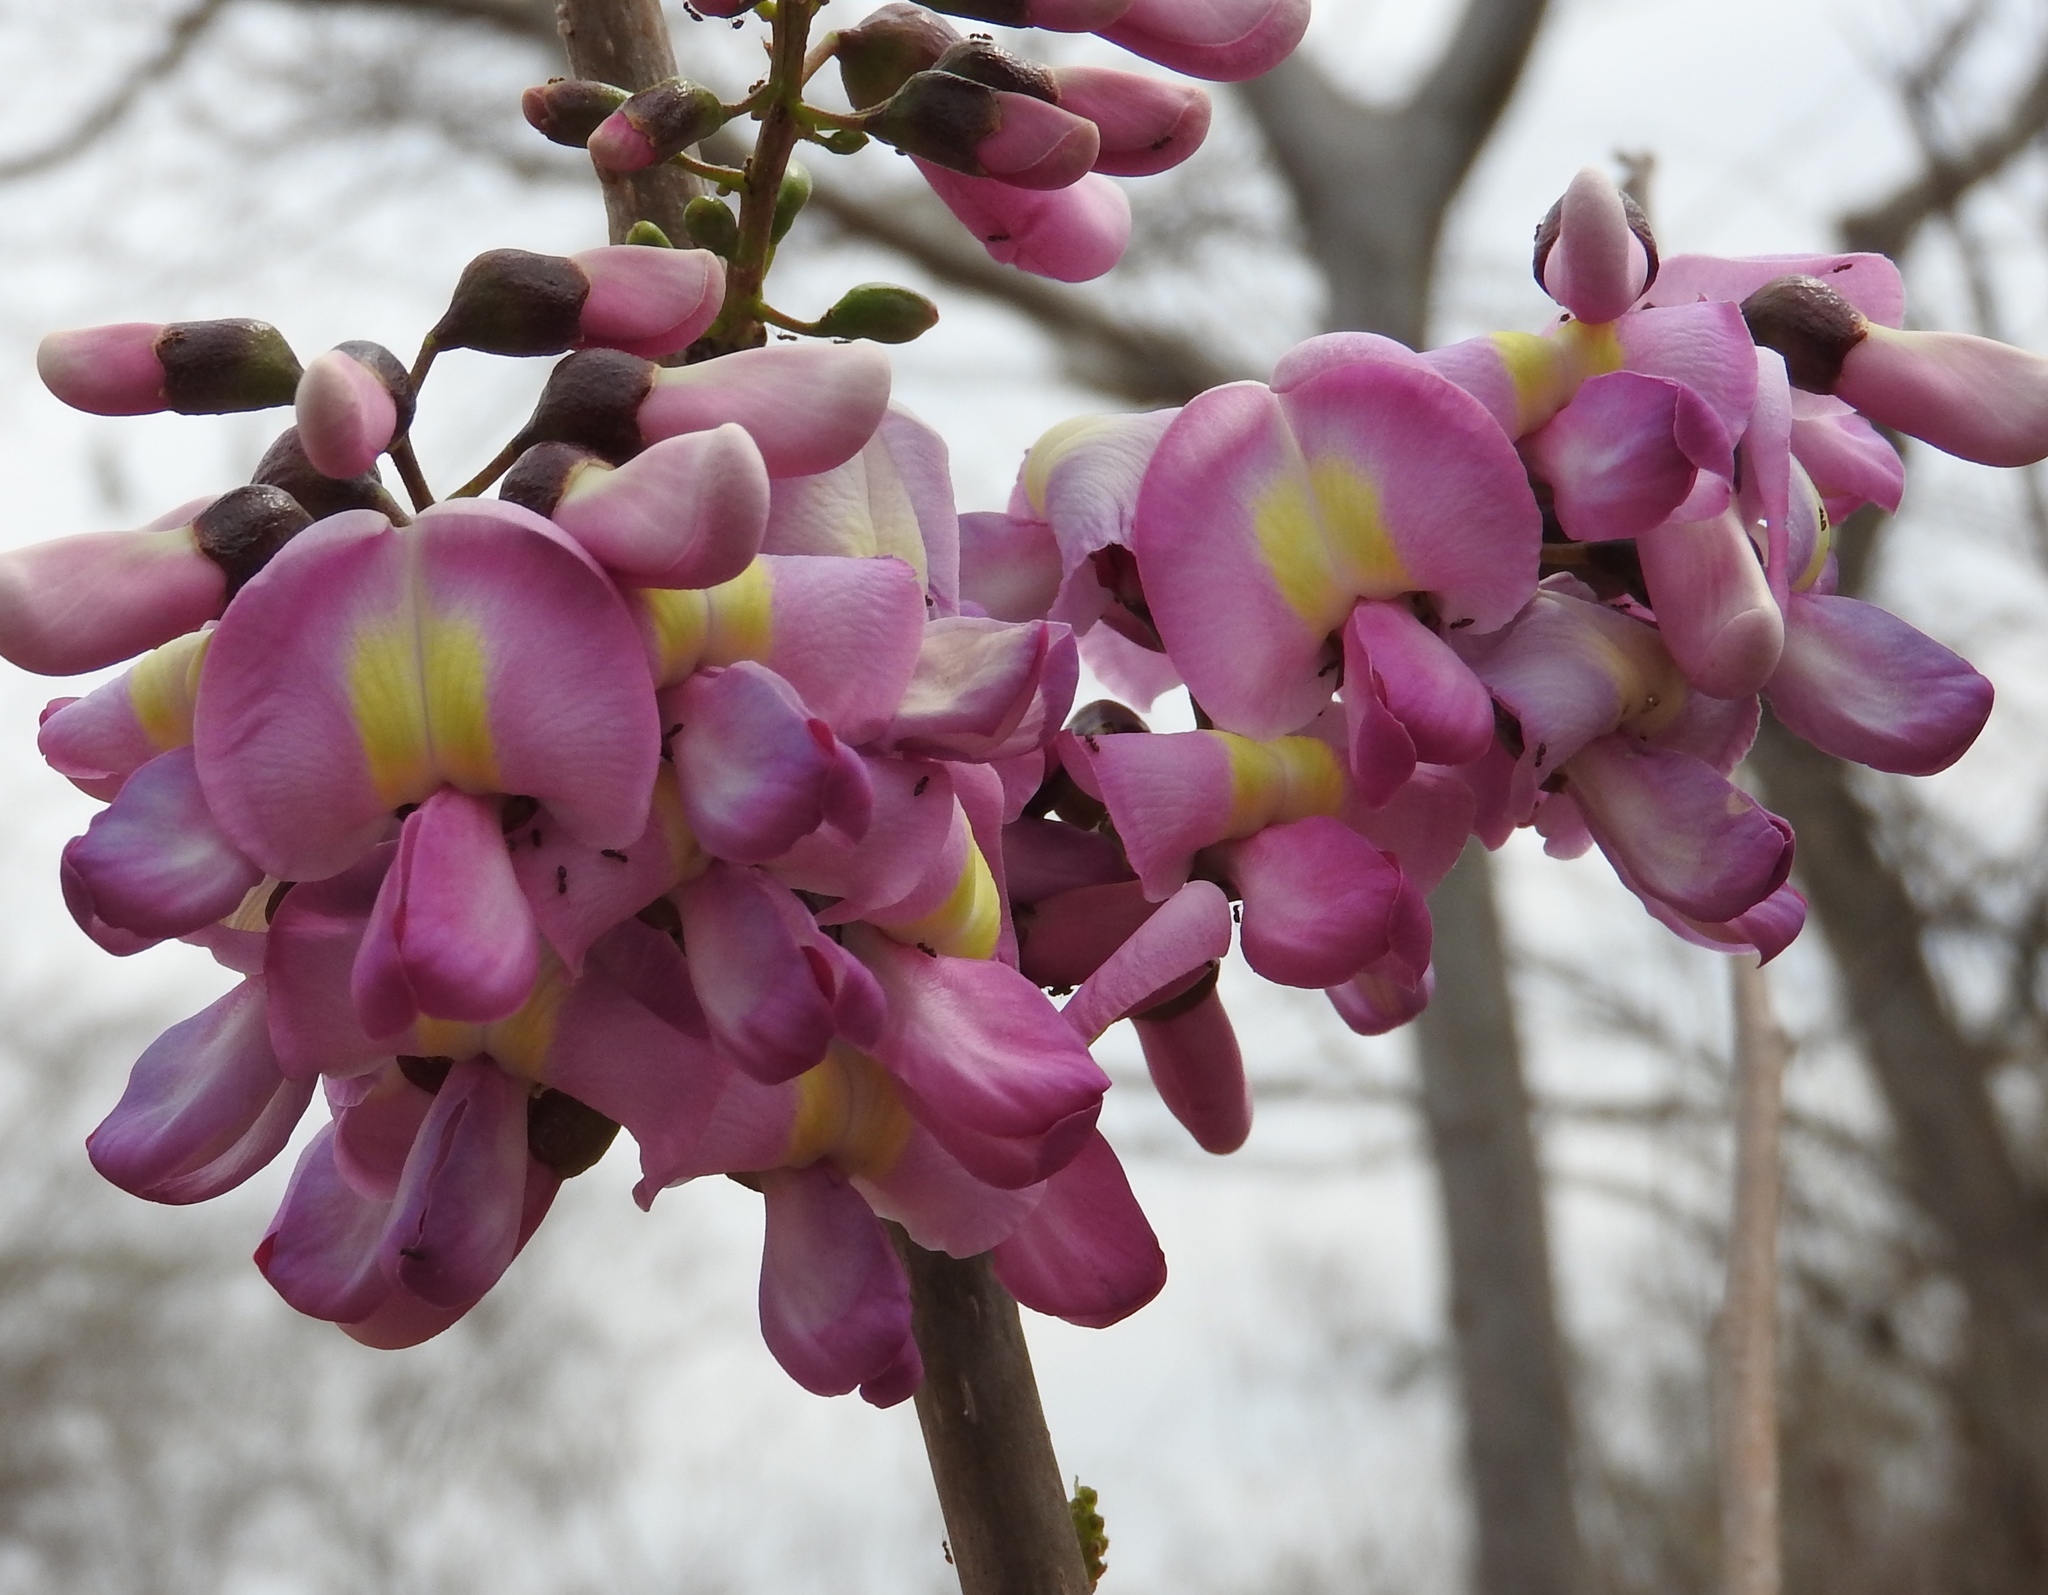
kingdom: Plantae
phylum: Tracheophyta
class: Magnoliopsida
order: Fabales
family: Fabaceae
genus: Gliricidia
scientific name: Gliricidia sepium
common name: Quickstick
